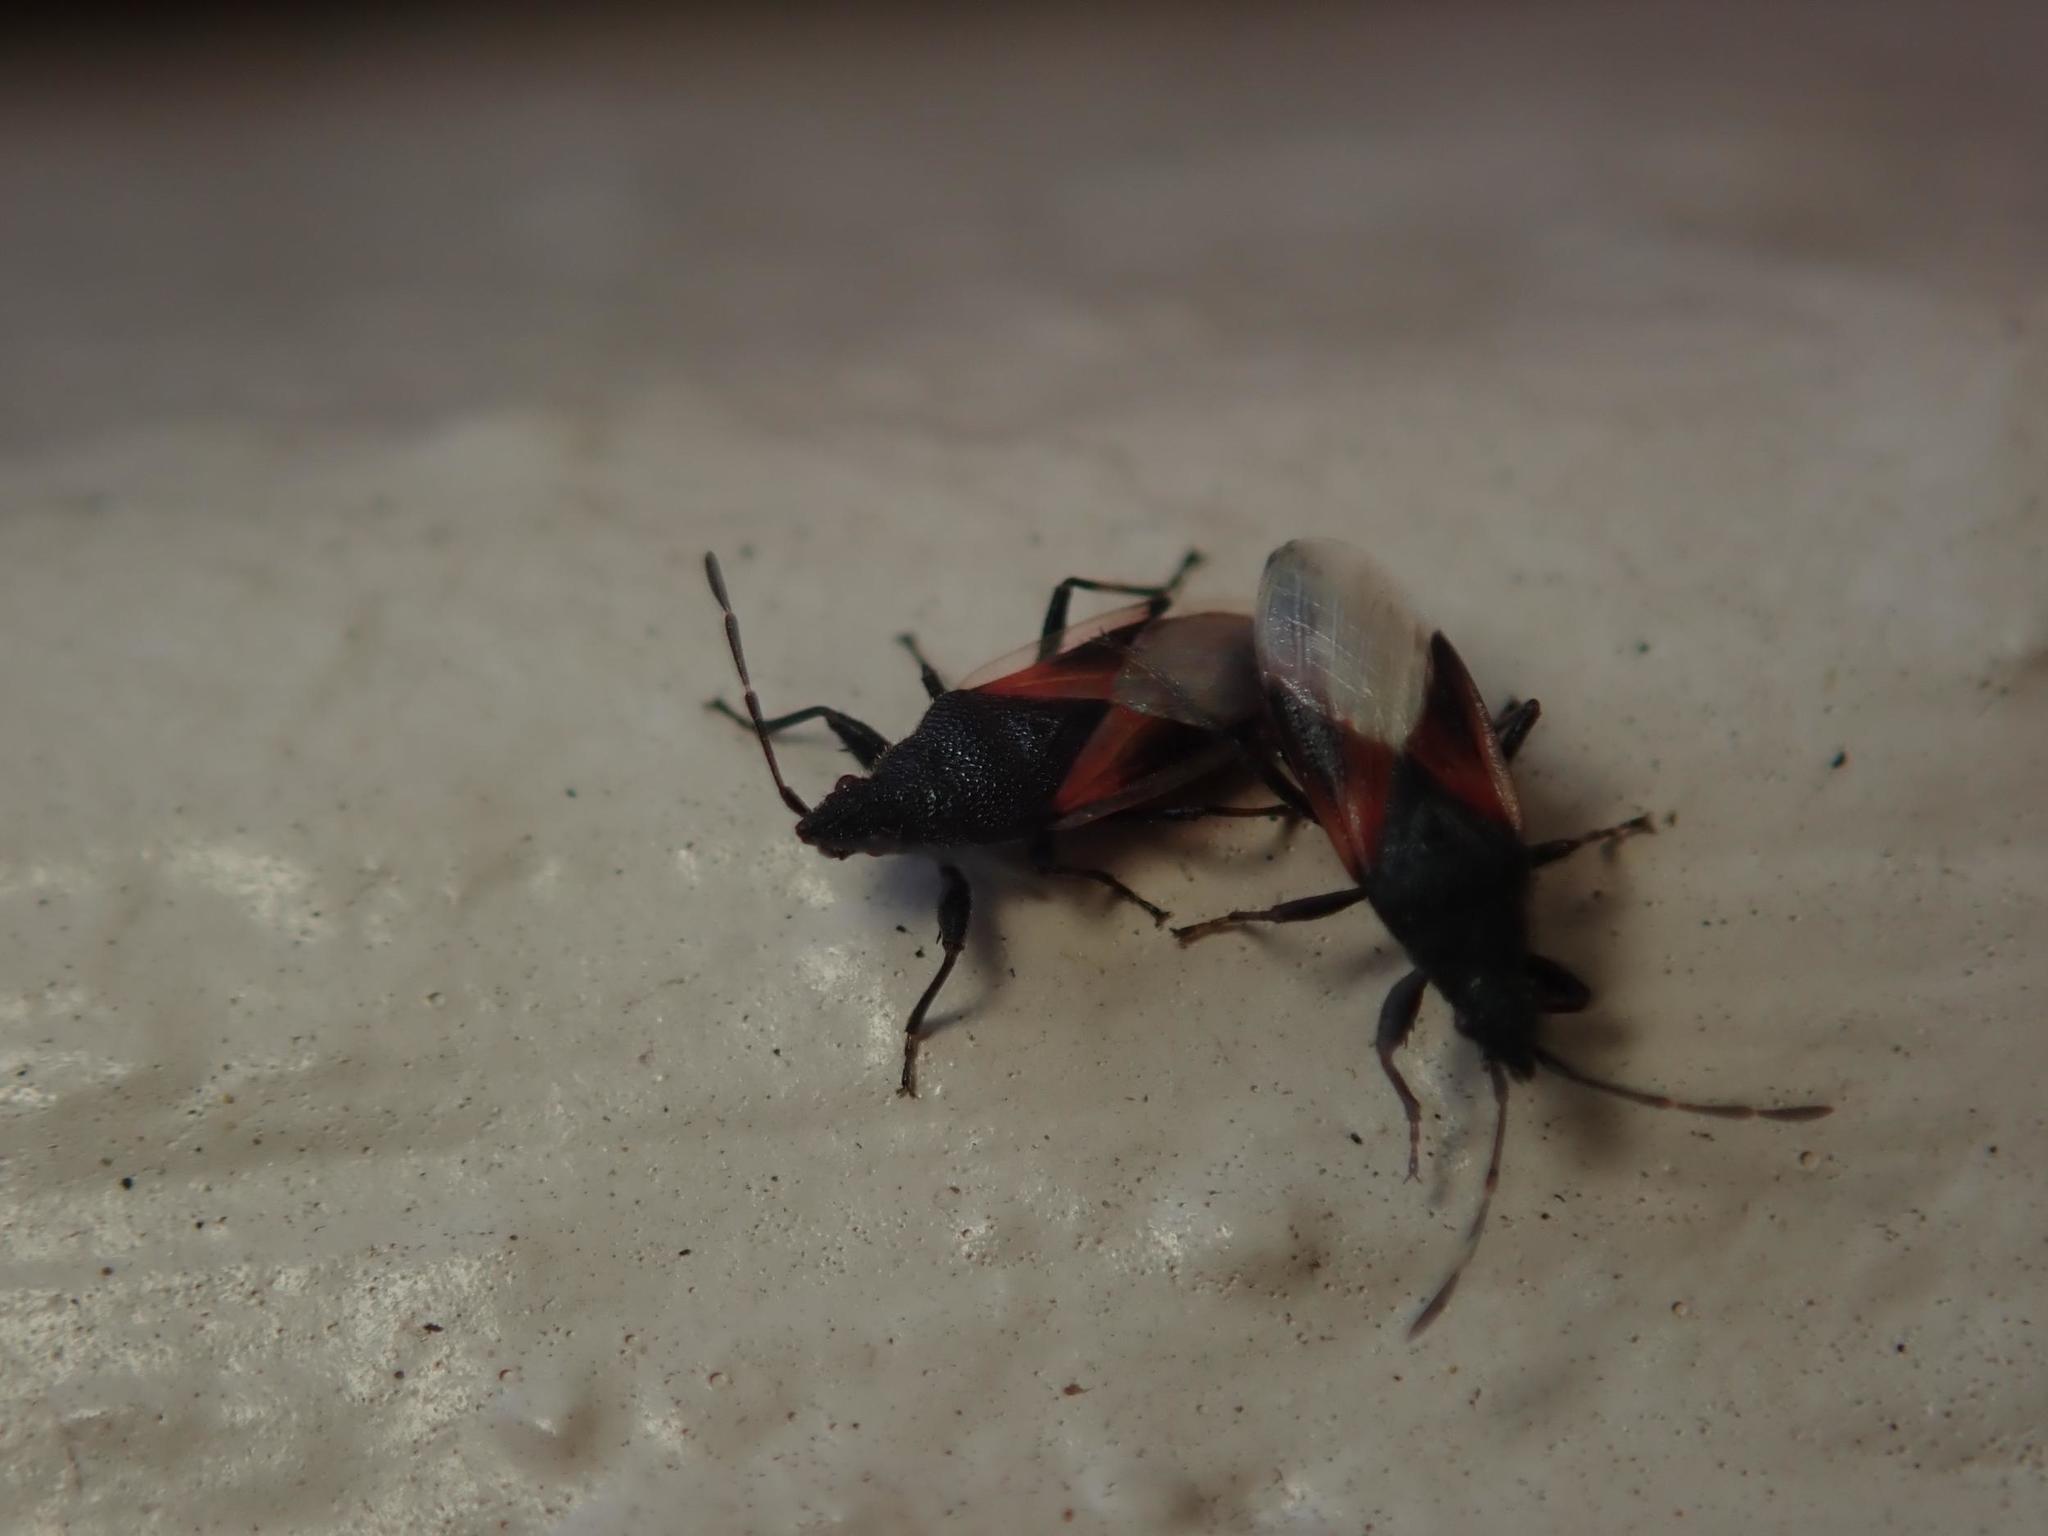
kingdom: Animalia
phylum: Arthropoda
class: Insecta
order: Hemiptera
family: Oxycarenidae
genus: Oxycarenus
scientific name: Oxycarenus lavaterae
